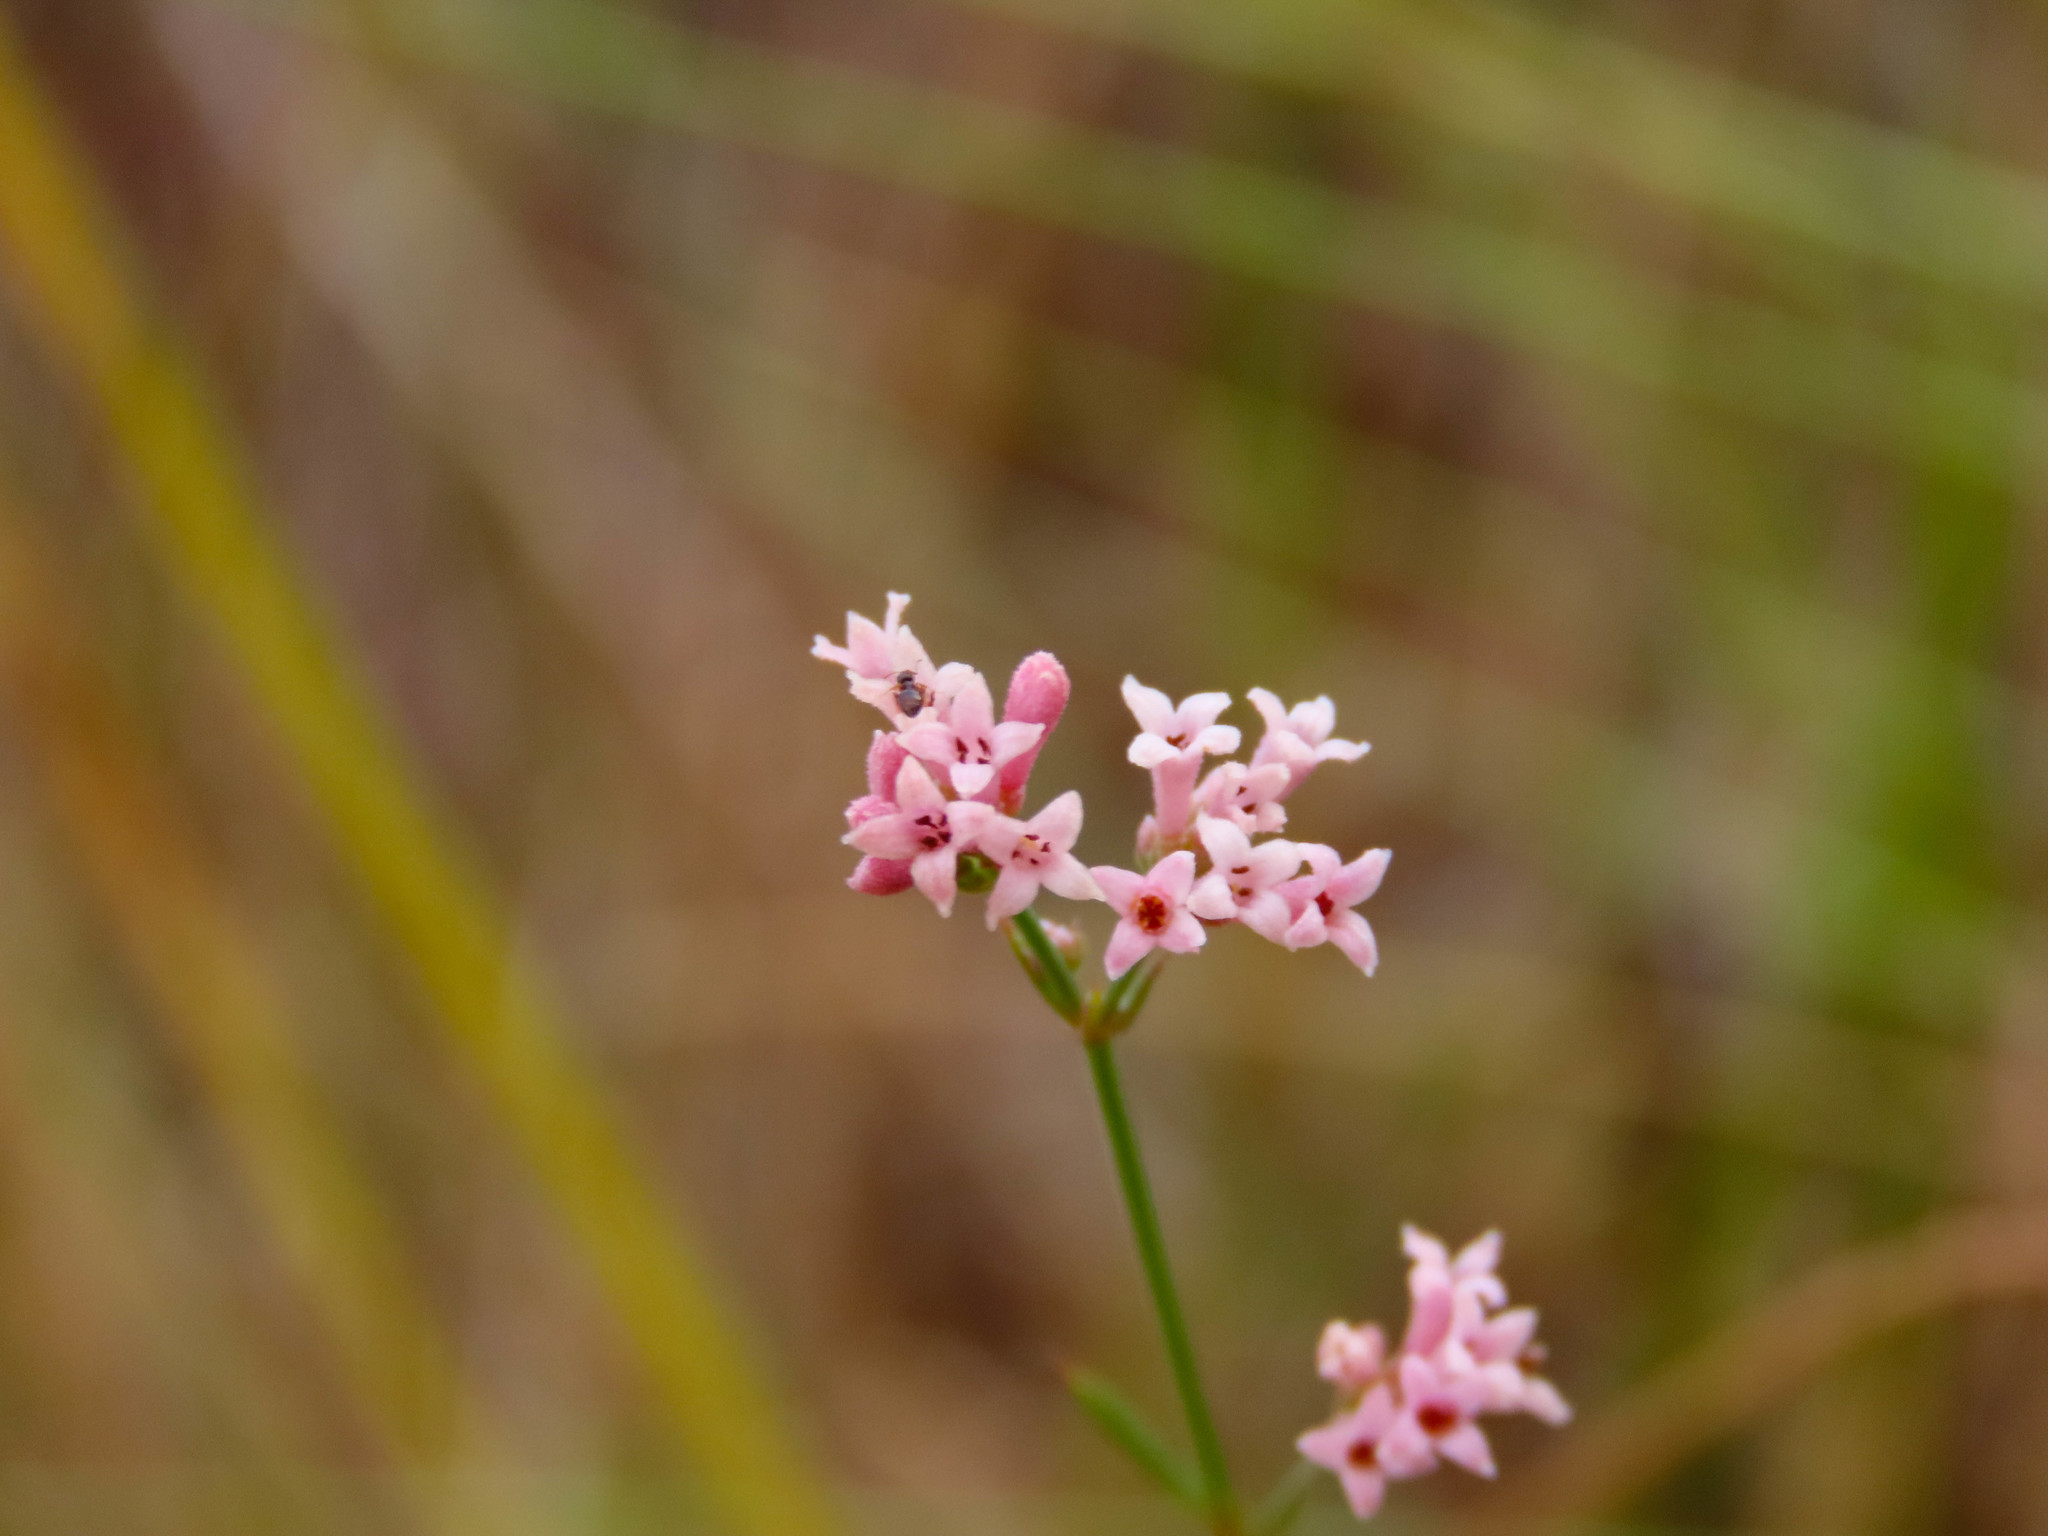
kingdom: Plantae
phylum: Tracheophyta
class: Magnoliopsida
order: Gentianales
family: Rubiaceae
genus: Cynanchica
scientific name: Cynanchica pyrenaica
